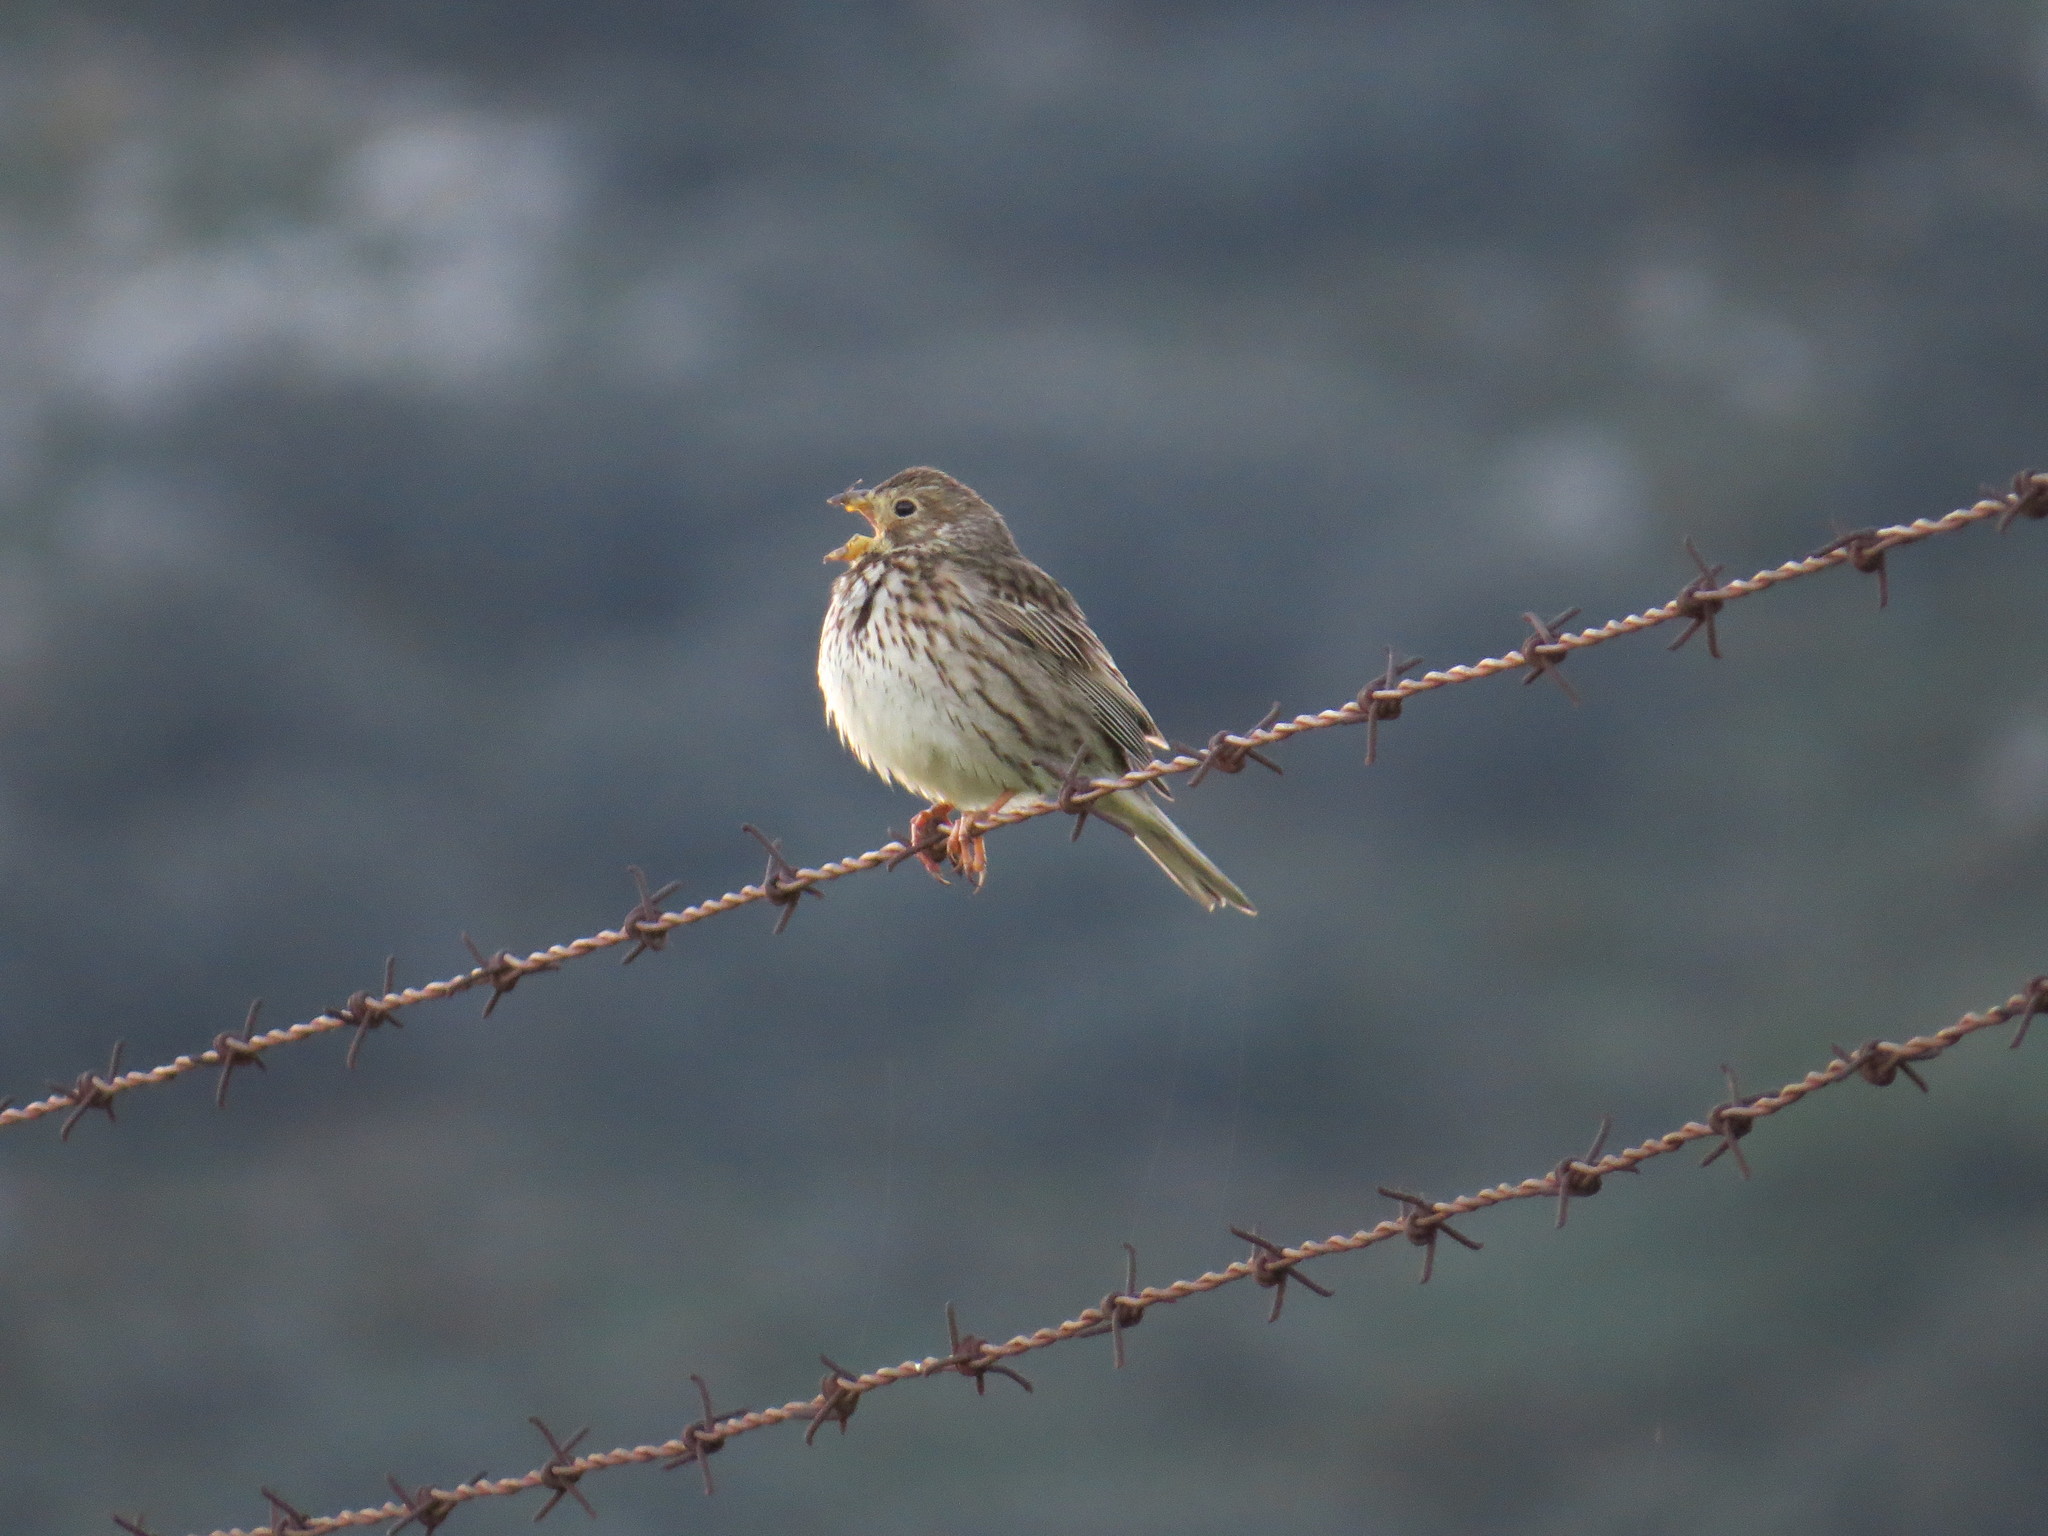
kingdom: Animalia
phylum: Chordata
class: Aves
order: Passeriformes
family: Emberizidae
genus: Emberiza
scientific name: Emberiza calandra
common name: Corn bunting
